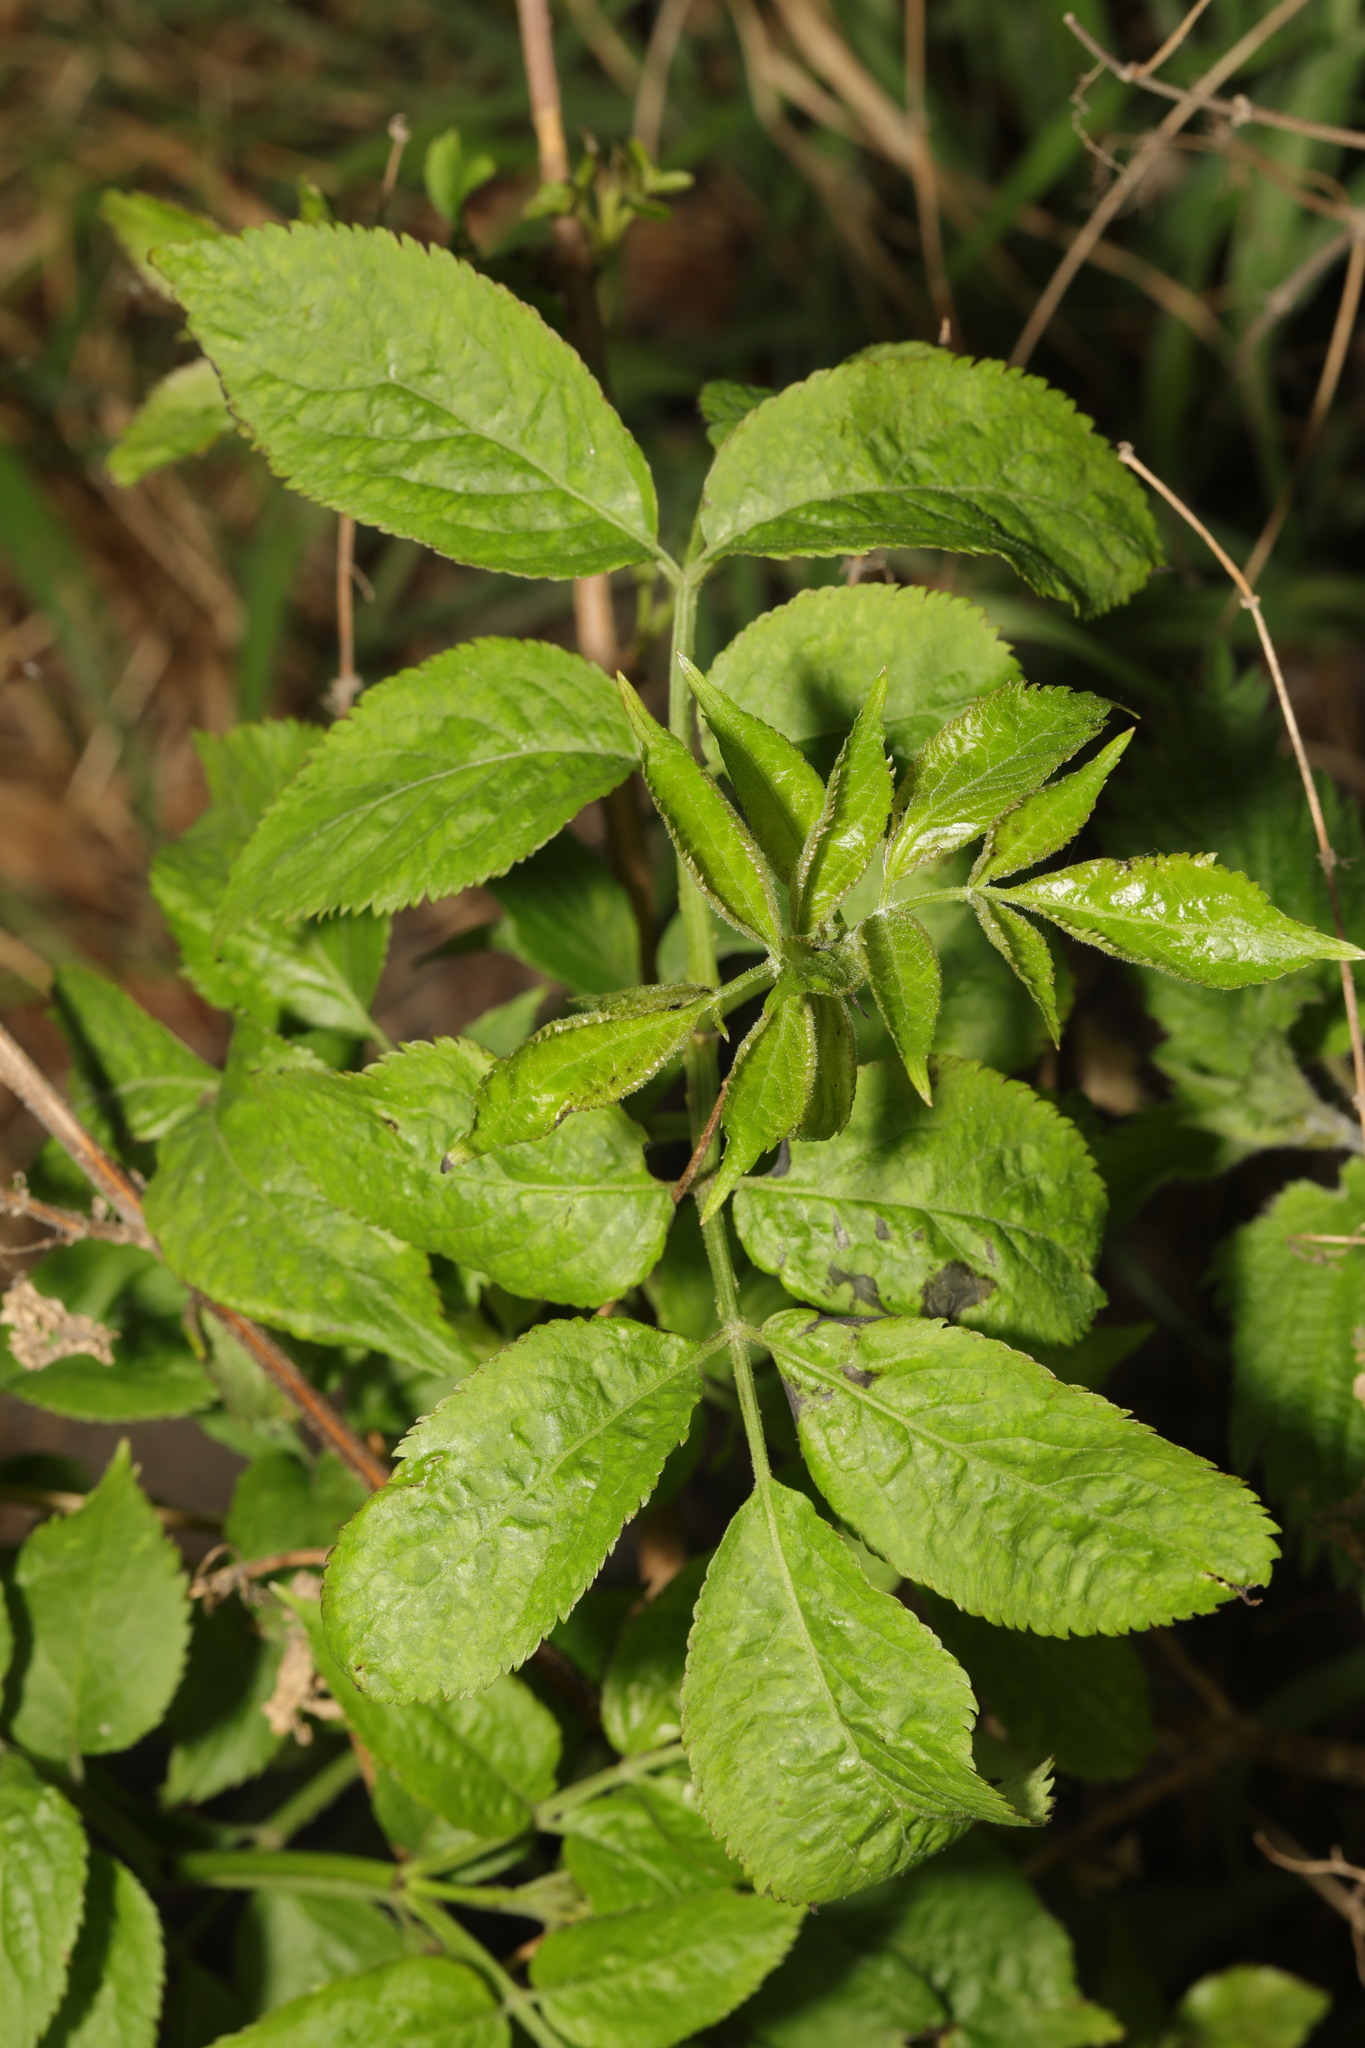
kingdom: Plantae
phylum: Tracheophyta
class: Magnoliopsida
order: Dipsacales
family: Viburnaceae
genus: Sambucus
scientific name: Sambucus nigra
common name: Elder
